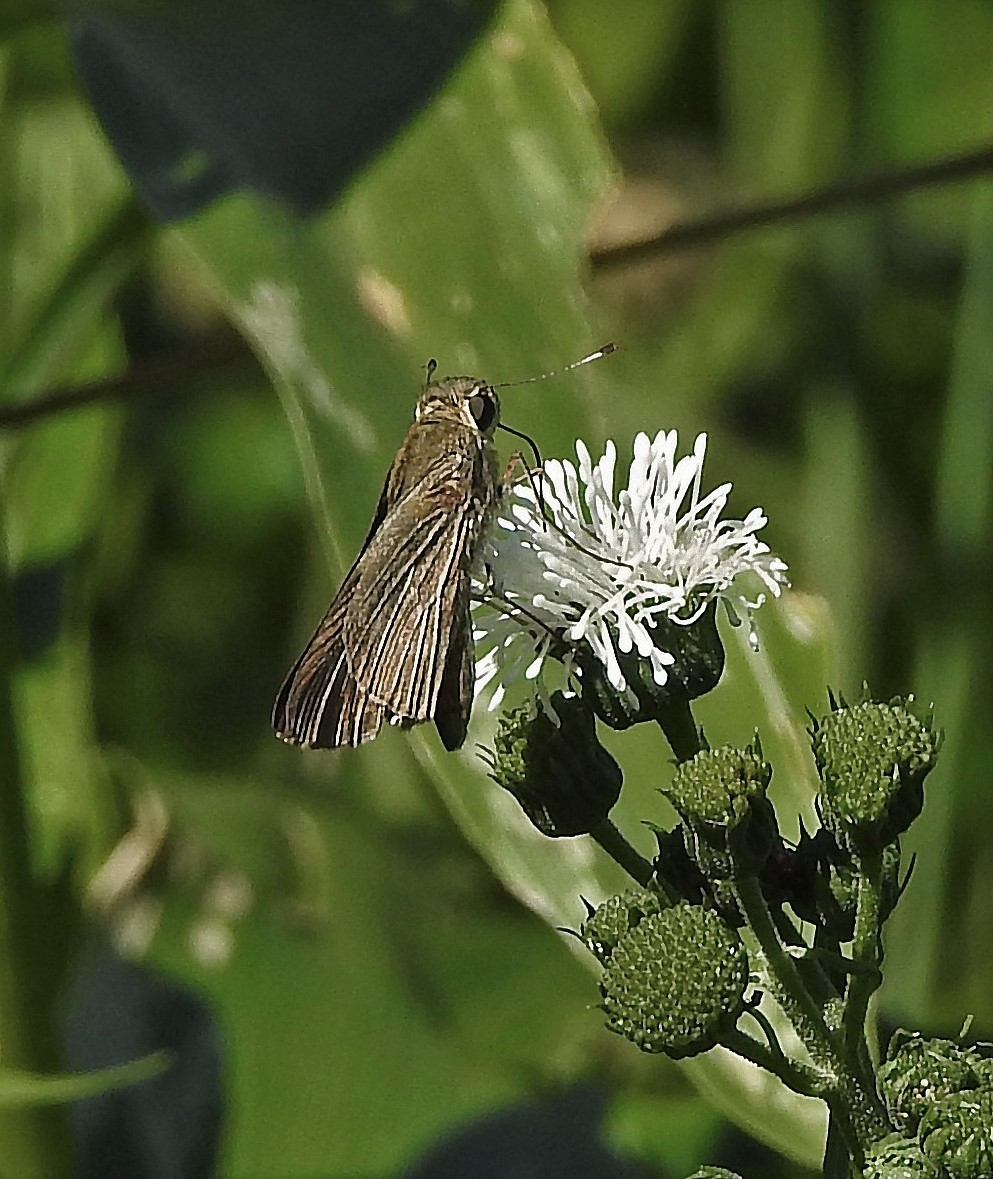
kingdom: Animalia
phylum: Arthropoda
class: Insecta
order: Lepidoptera
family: Hesperiidae
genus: Panoquina
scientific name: Panoquina ocola
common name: Ocola skipper
